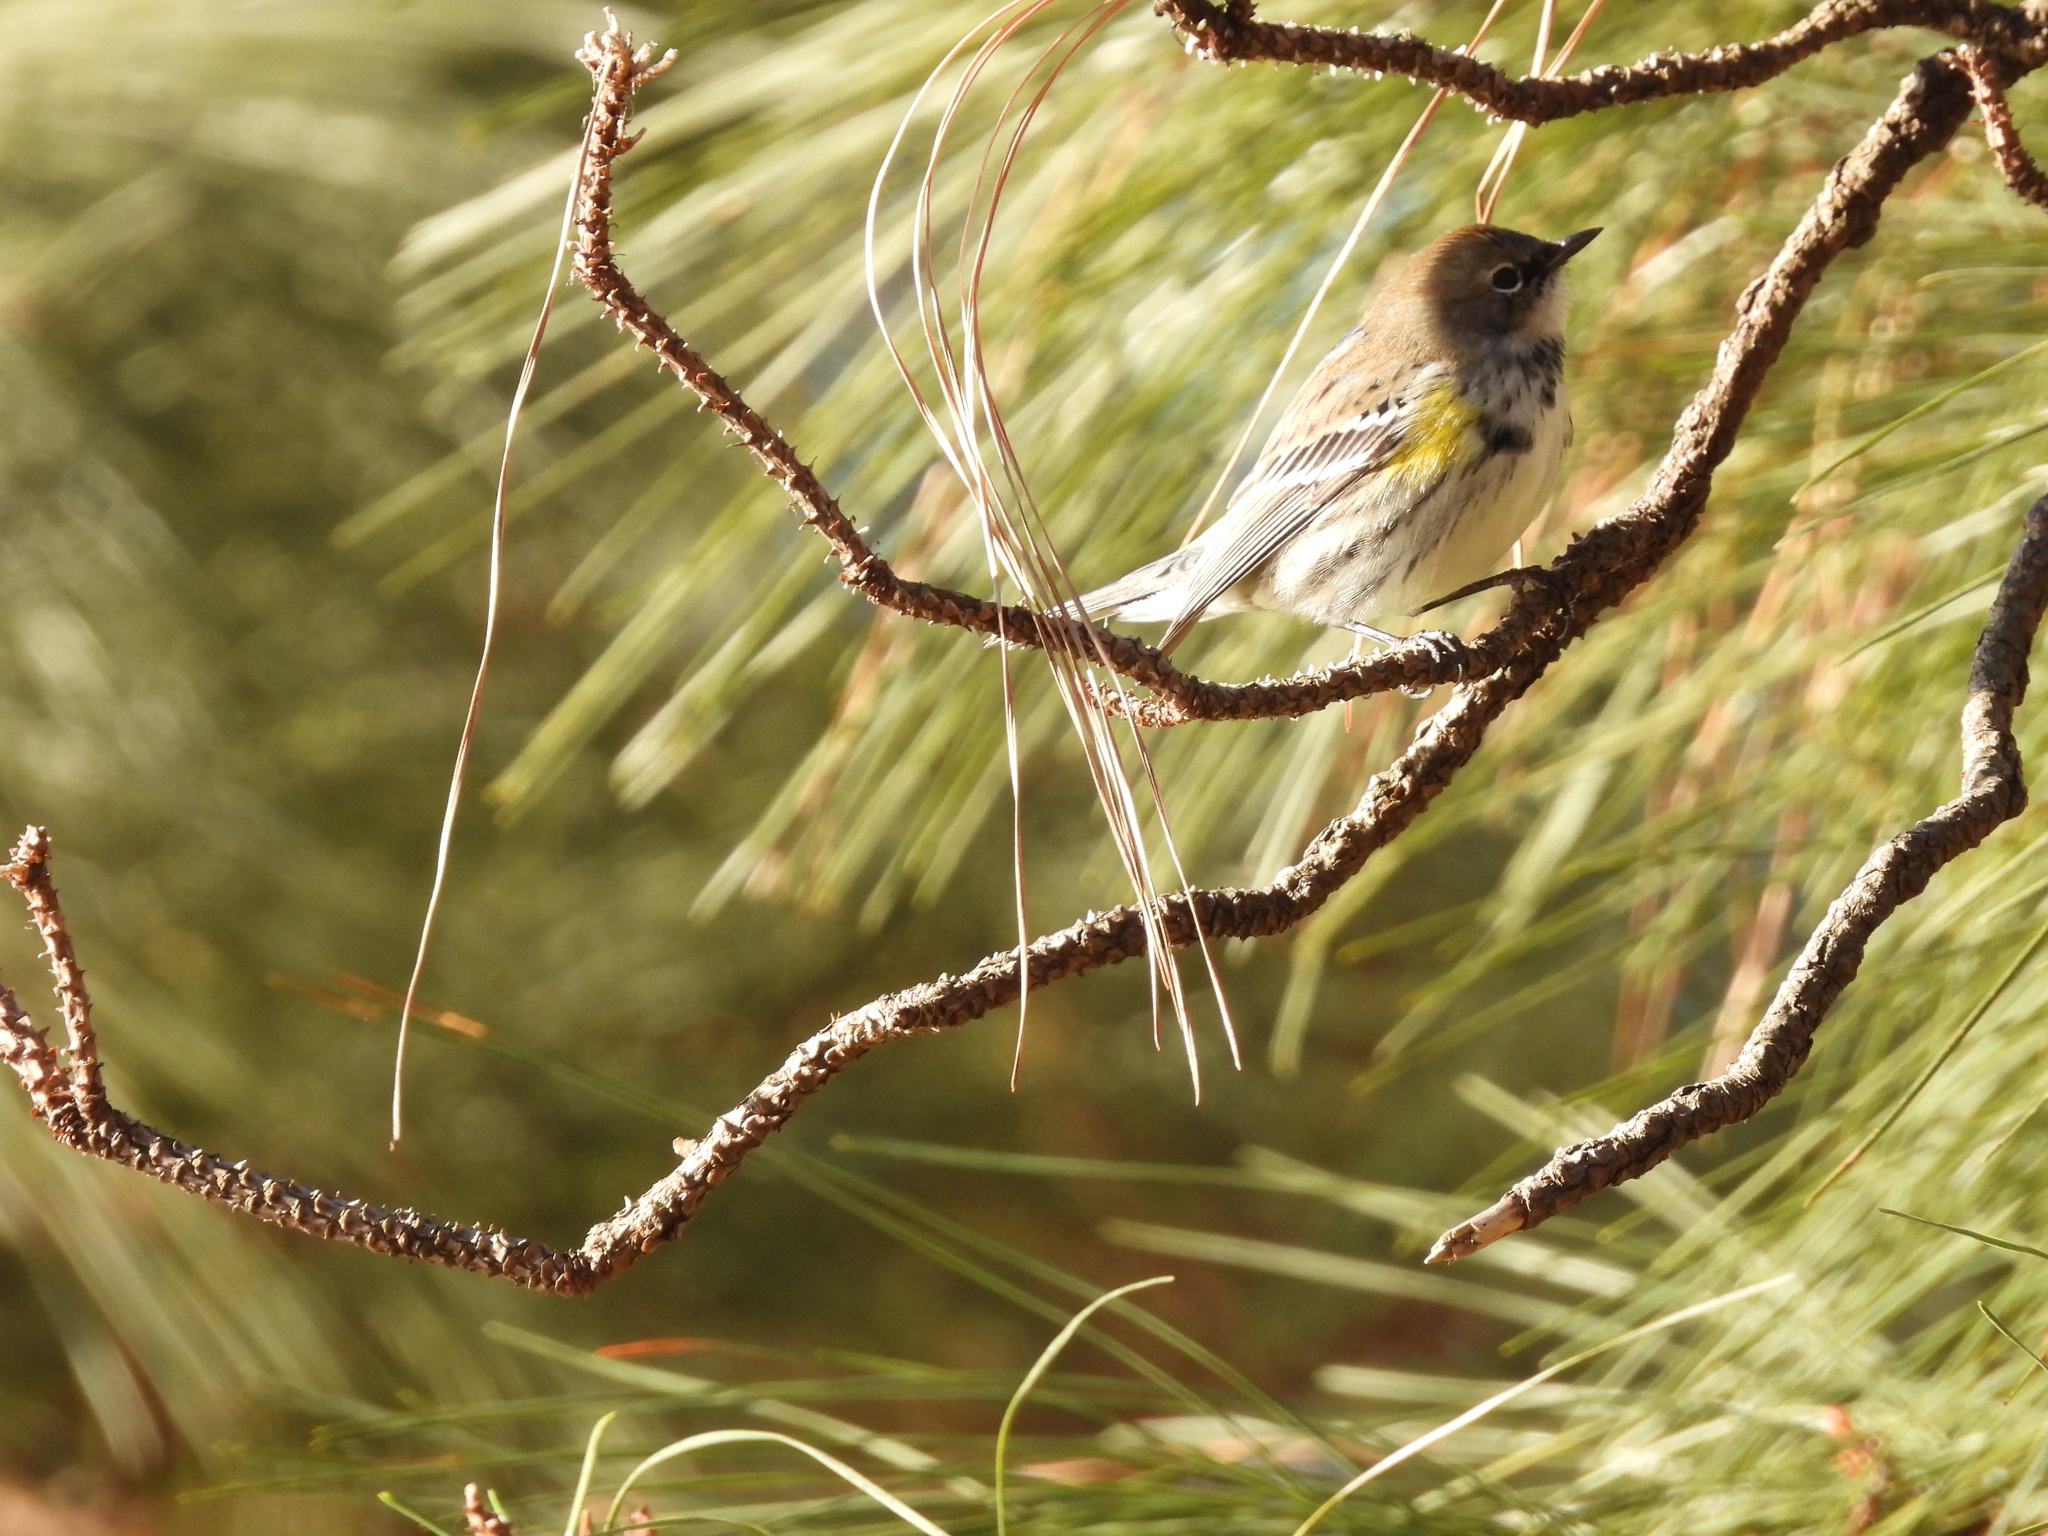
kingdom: Animalia
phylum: Chordata
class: Aves
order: Passeriformes
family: Parulidae
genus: Setophaga
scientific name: Setophaga coronata
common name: Myrtle warbler
